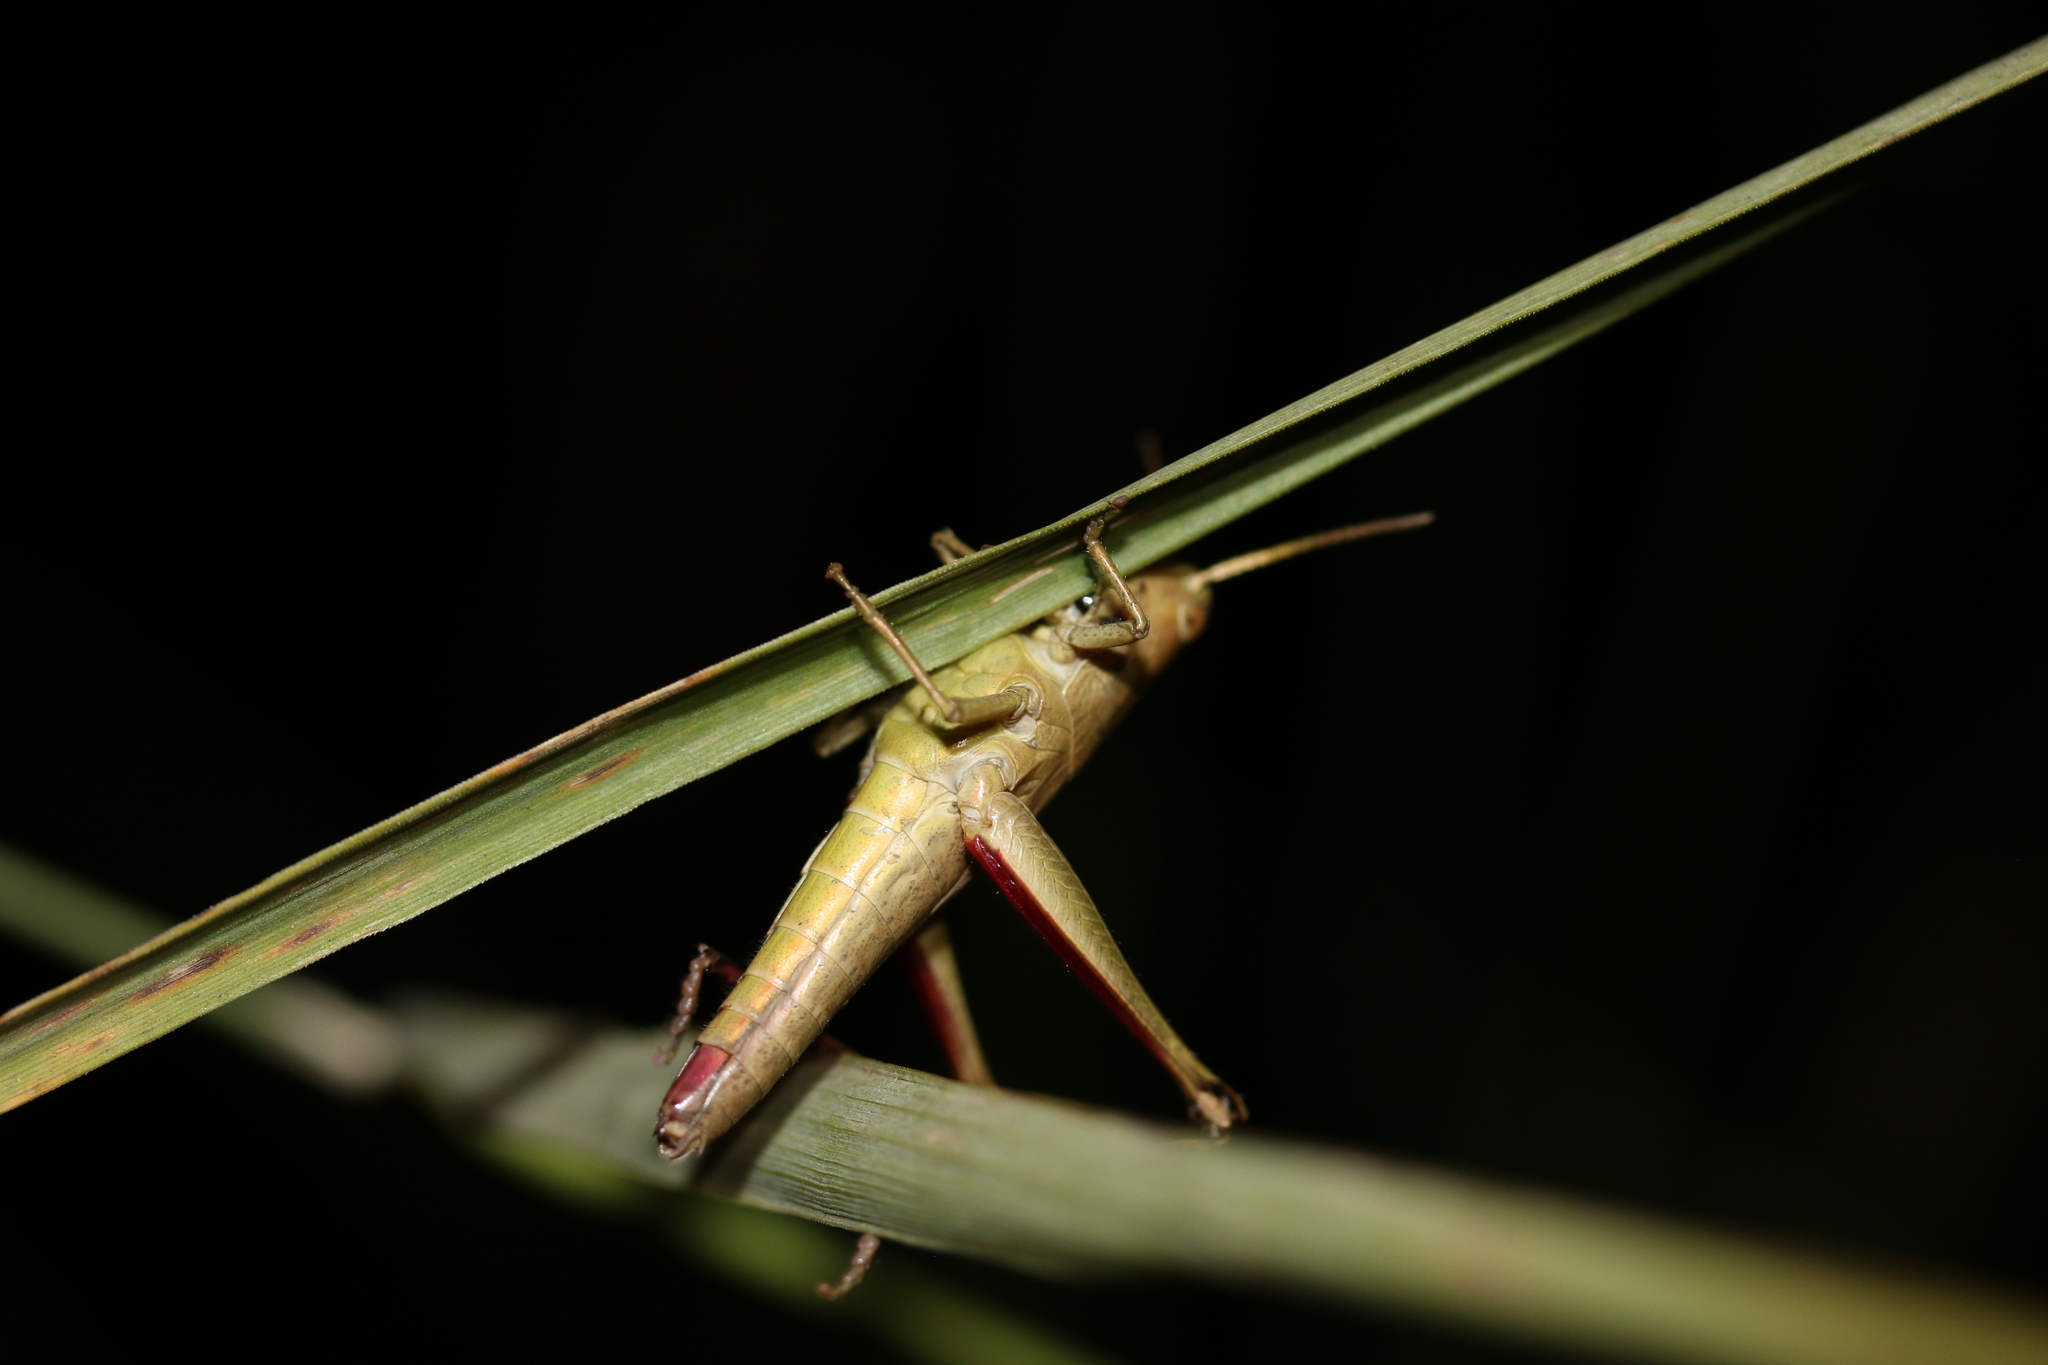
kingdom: Animalia
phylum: Arthropoda
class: Insecta
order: Orthoptera
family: Acrididae
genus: Chrysochraon
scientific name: Chrysochraon dispar
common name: Large gold grasshopper
